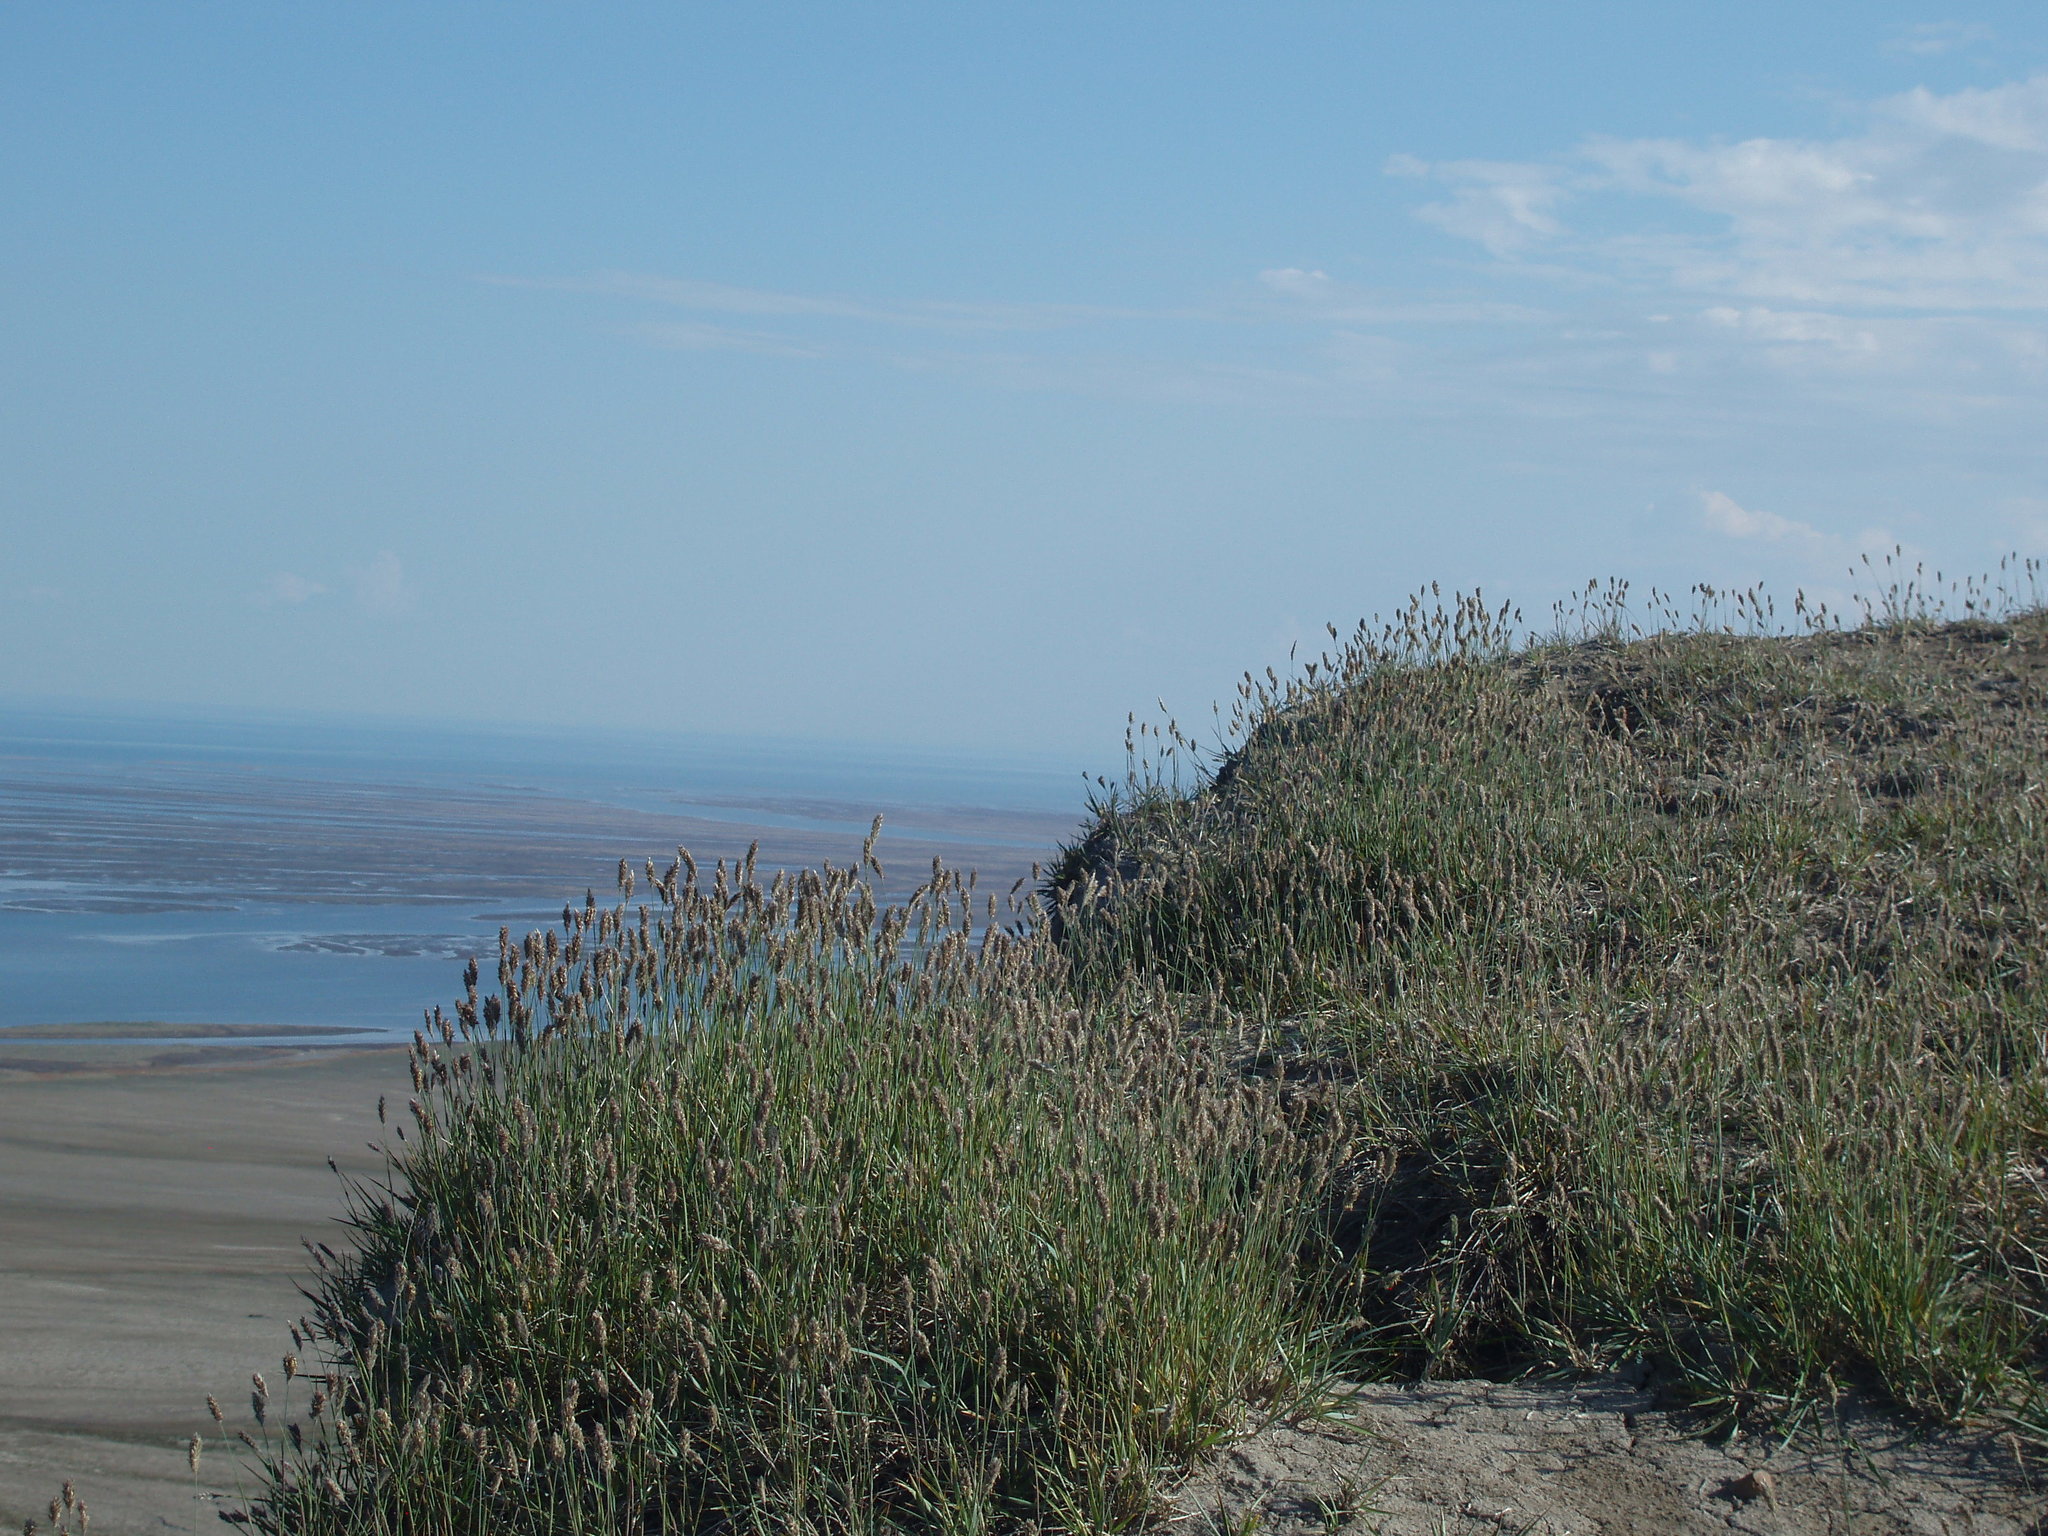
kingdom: Plantae
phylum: Tracheophyta
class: Liliopsida
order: Poales
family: Poaceae
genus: Leymus
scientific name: Leymus villosissimus
